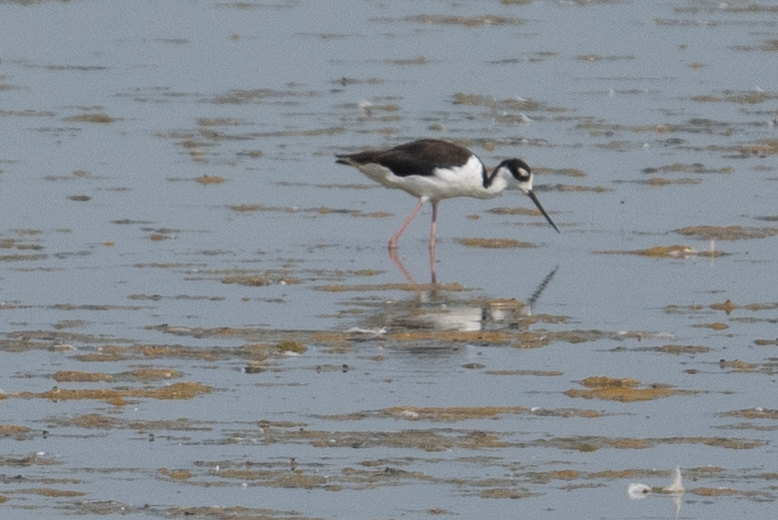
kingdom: Animalia
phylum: Chordata
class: Aves
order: Charadriiformes
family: Recurvirostridae
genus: Himantopus
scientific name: Himantopus mexicanus
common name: Black-necked stilt
